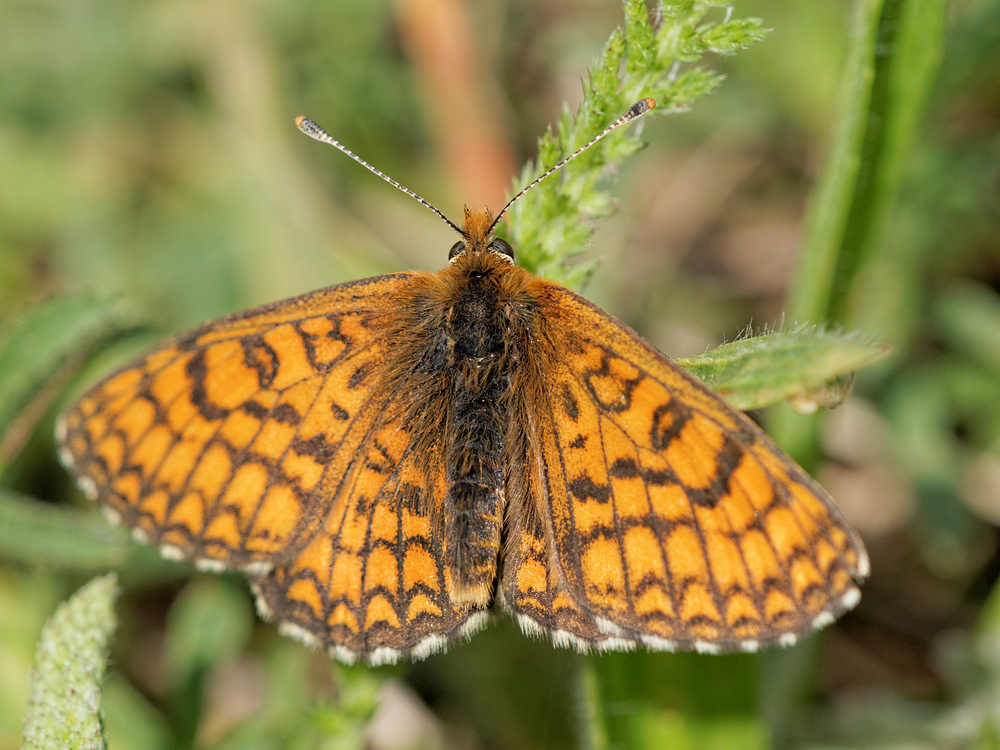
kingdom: Animalia
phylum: Arthropoda
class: Insecta
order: Lepidoptera
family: Nymphalidae
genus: Mellicta
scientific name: Mellicta parthenoides
